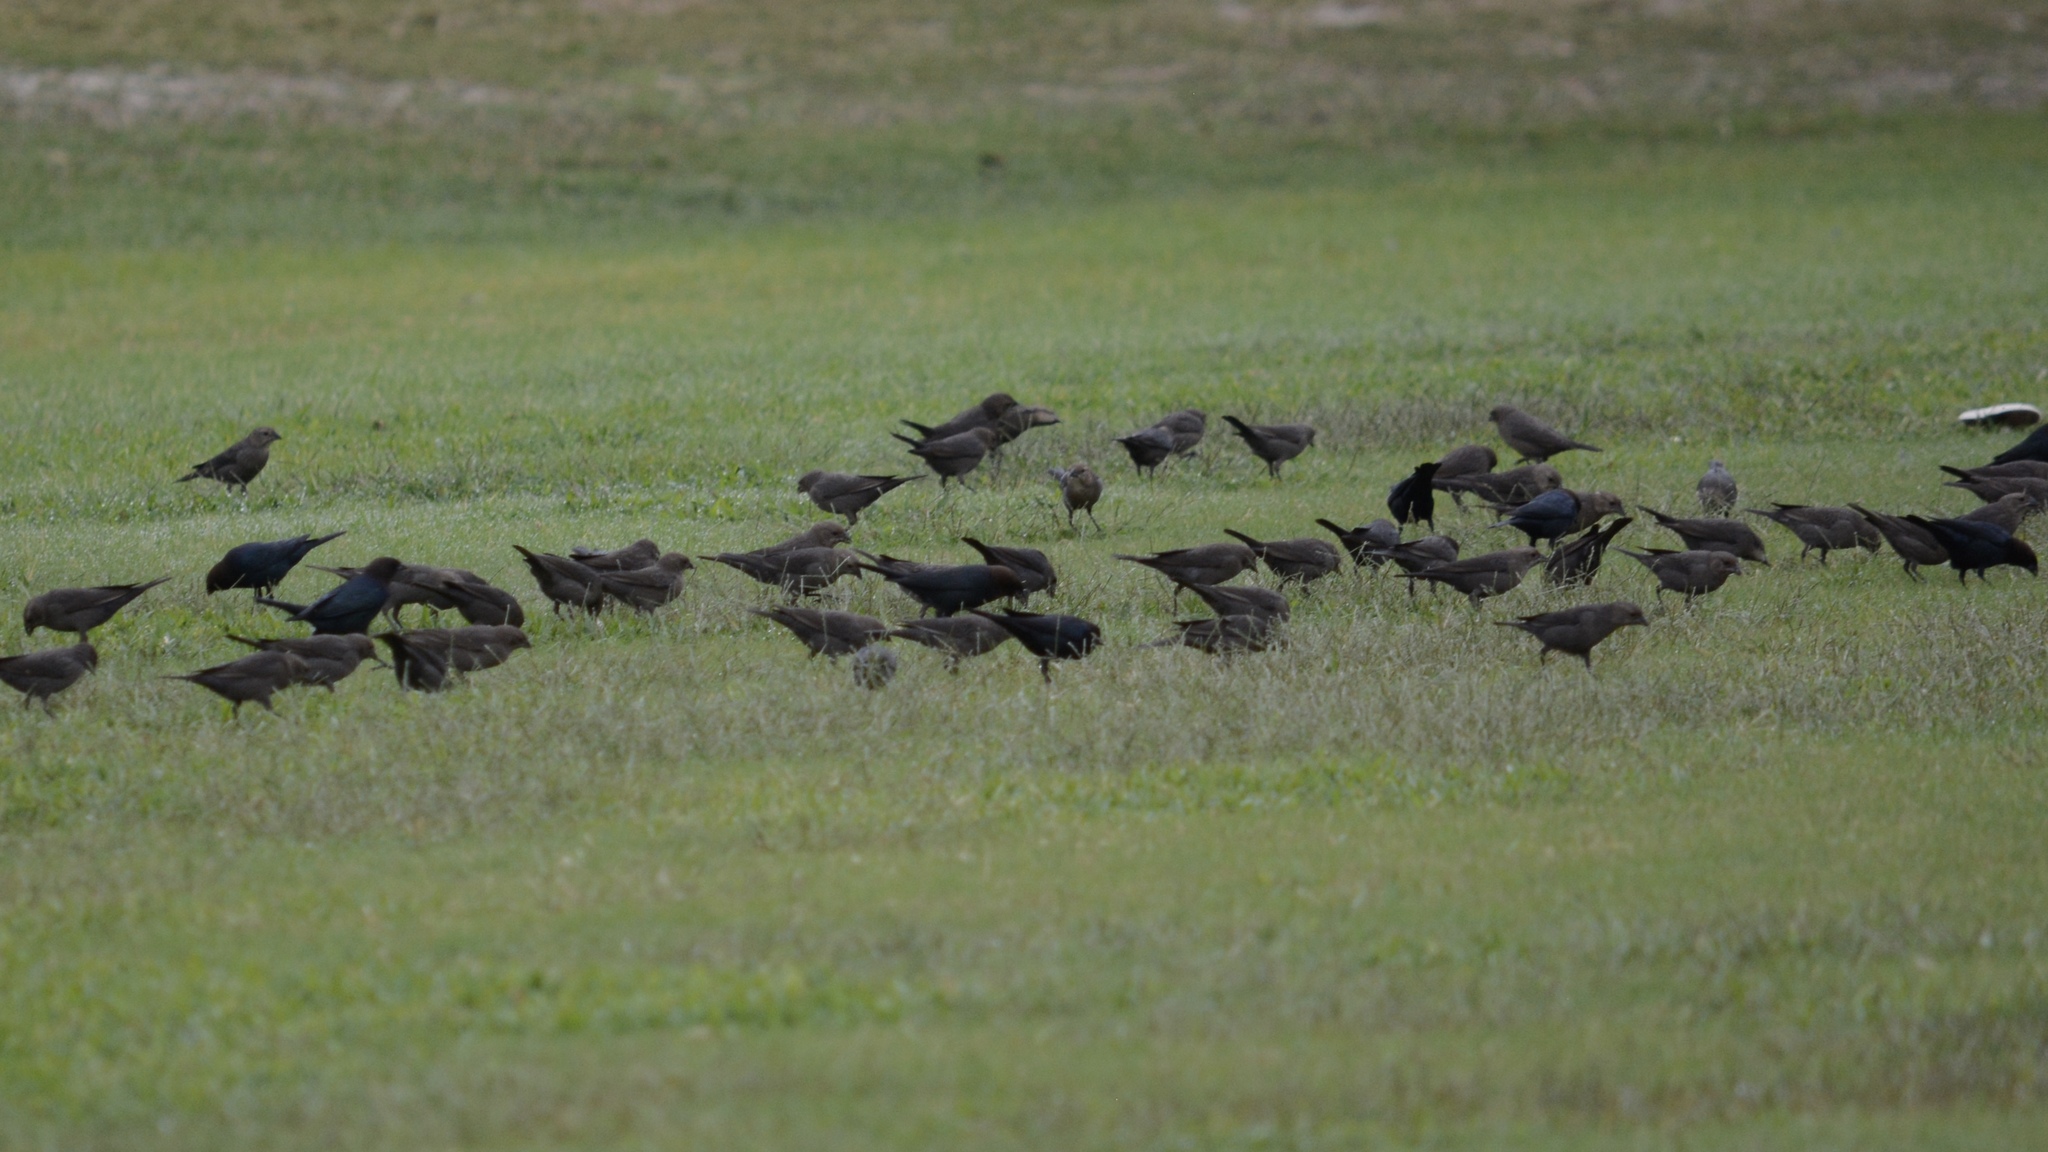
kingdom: Animalia
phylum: Chordata
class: Aves
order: Passeriformes
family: Icteridae
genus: Molothrus
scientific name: Molothrus ater
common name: Brown-headed cowbird
